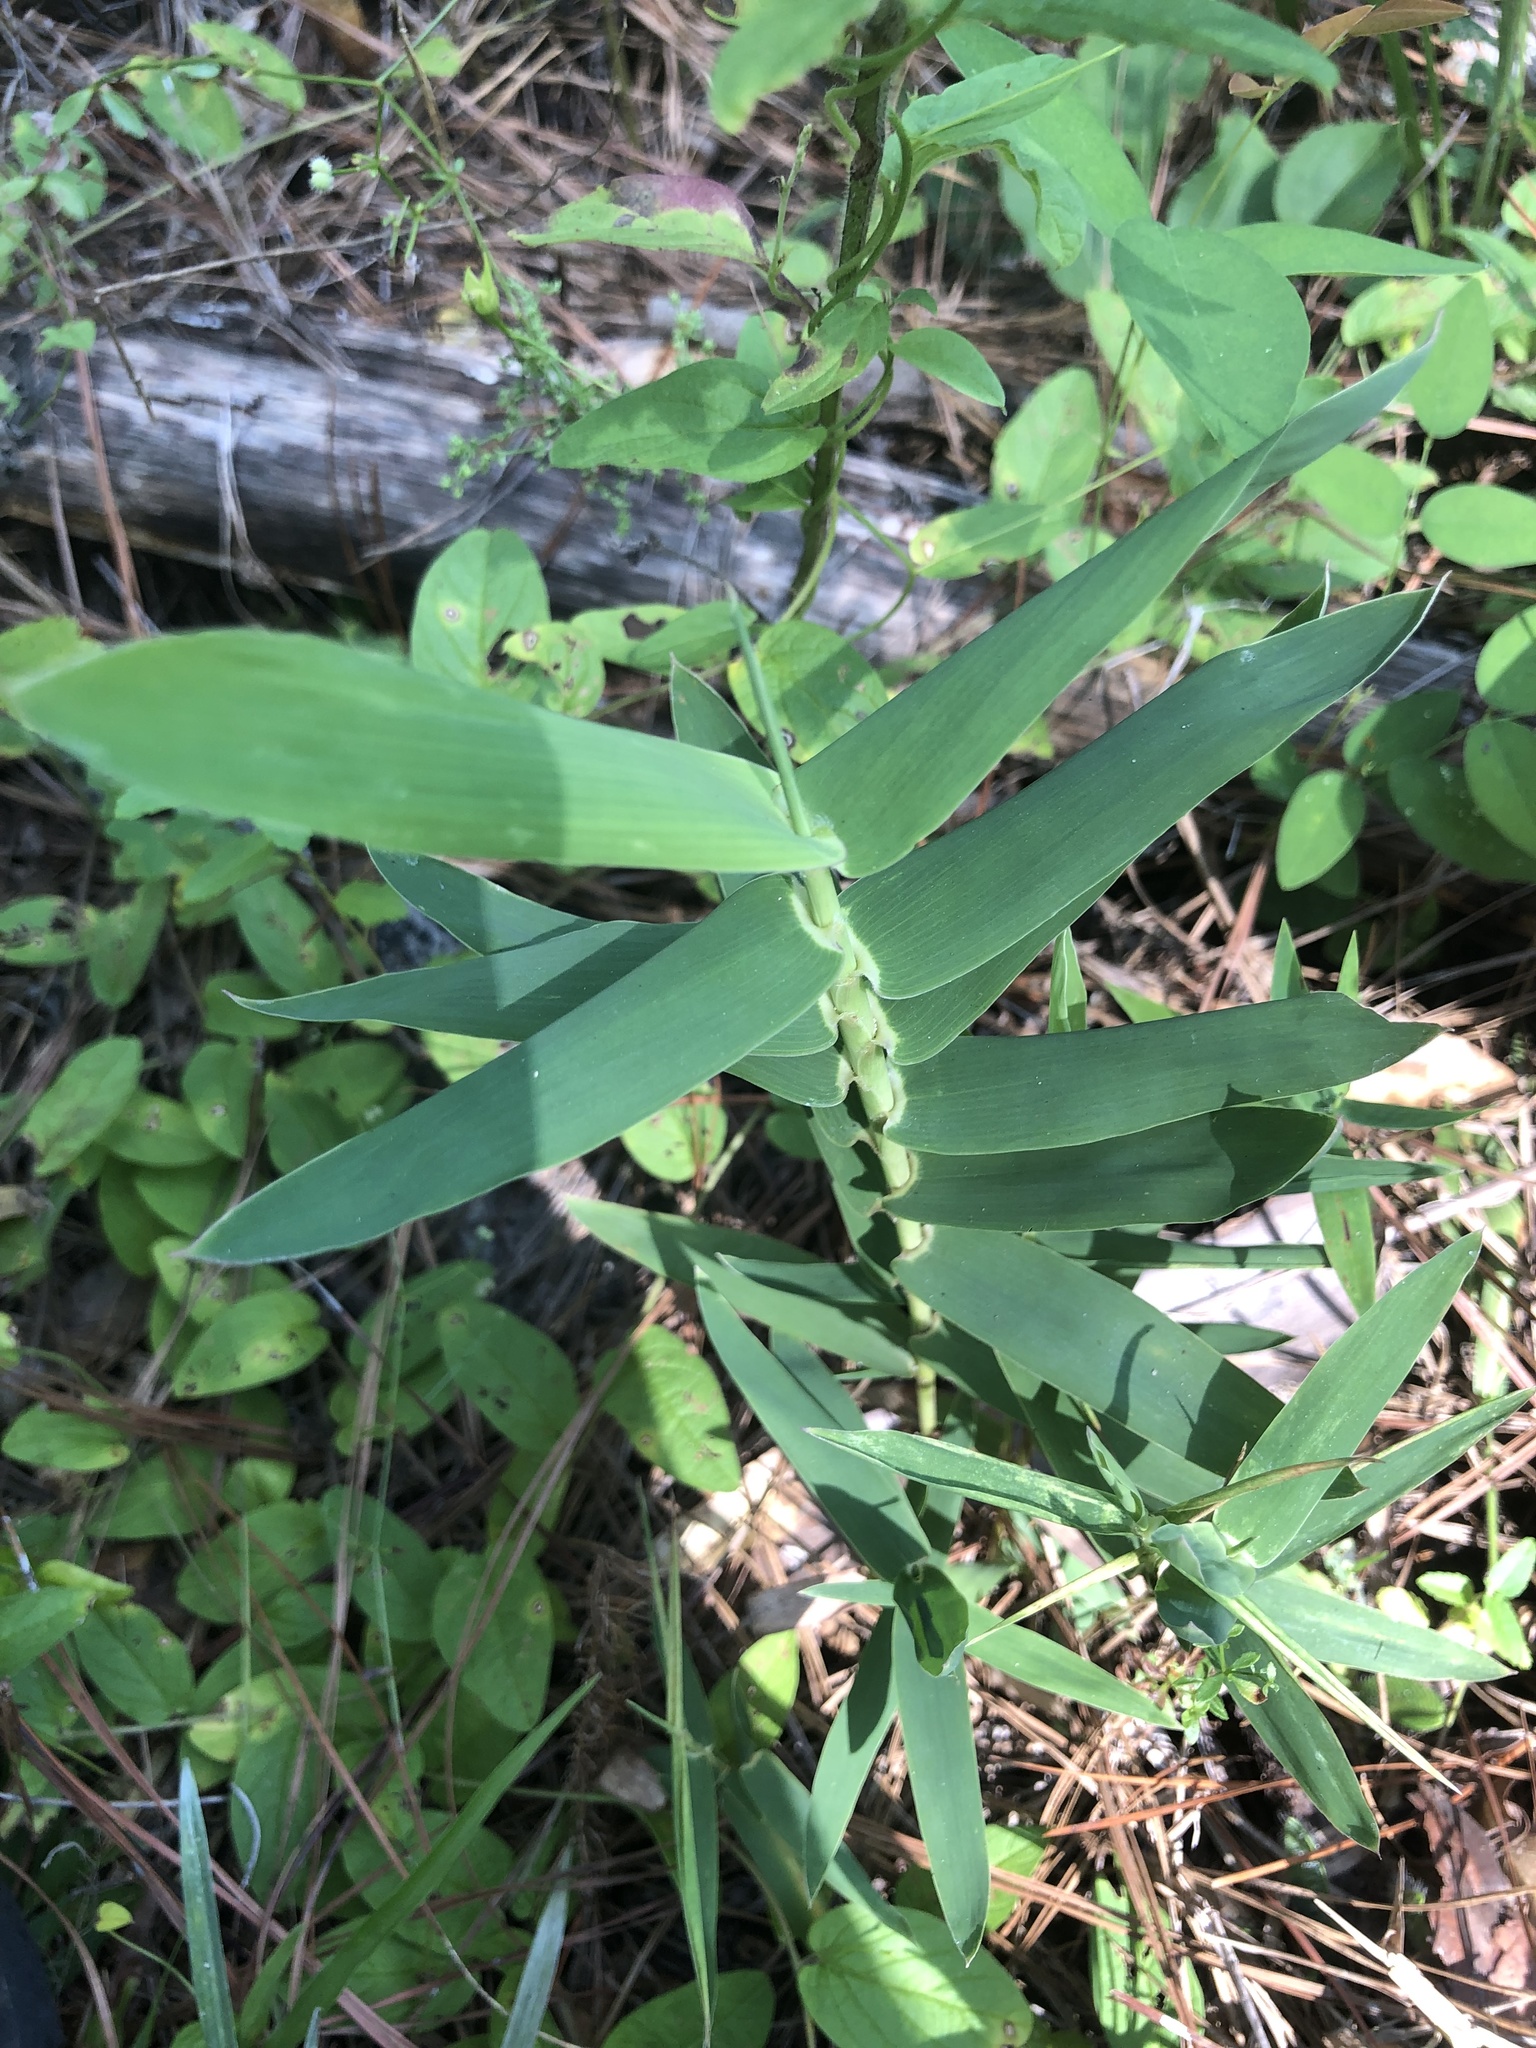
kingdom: Plantae
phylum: Tracheophyta
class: Liliopsida
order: Poales
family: Poaceae
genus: Gymnopogon
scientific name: Gymnopogon ambiguus
